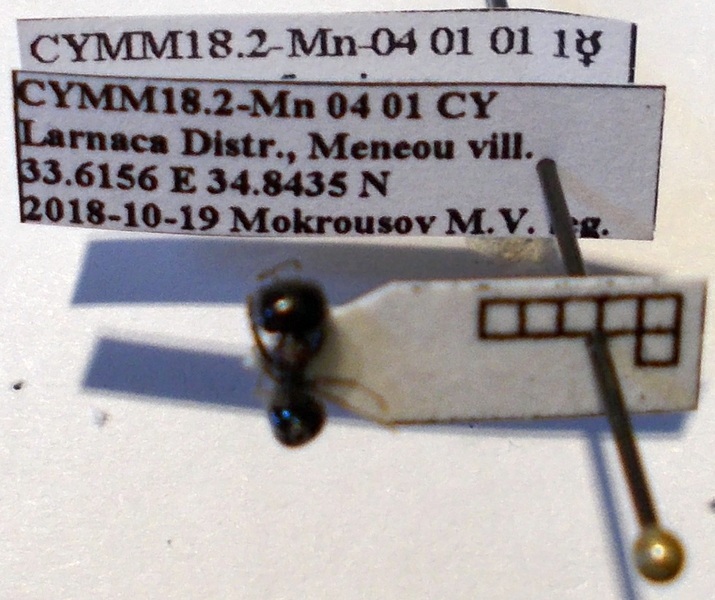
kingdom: Animalia
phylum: Arthropoda
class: Insecta
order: Hymenoptera
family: Formicidae
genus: Messor
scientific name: Messor syriacus
